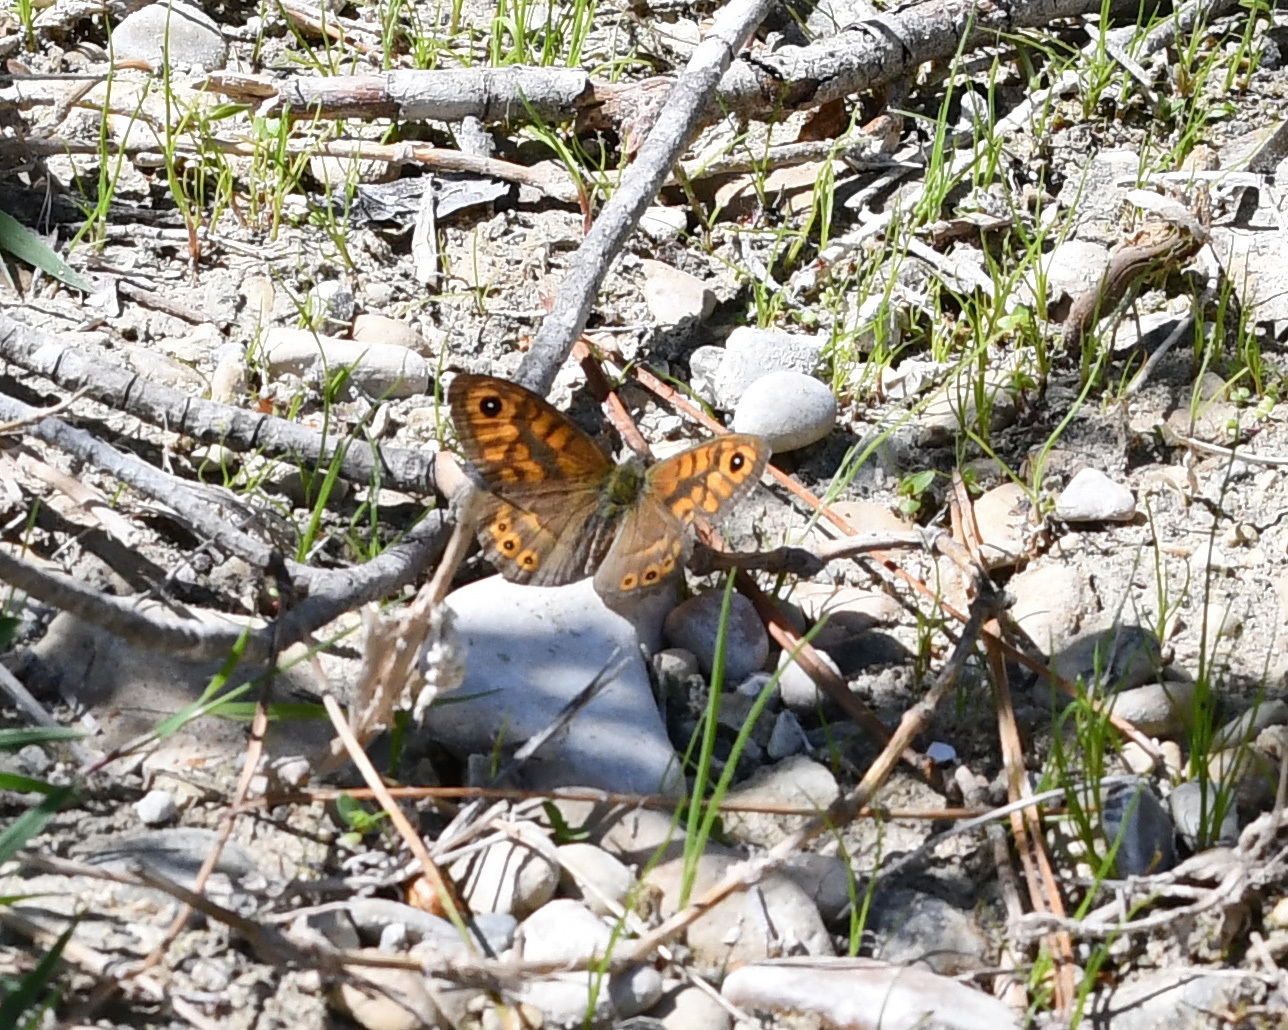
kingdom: Animalia
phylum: Arthropoda
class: Insecta
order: Lepidoptera
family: Nymphalidae
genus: Pararge
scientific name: Pararge Lasiommata megera
